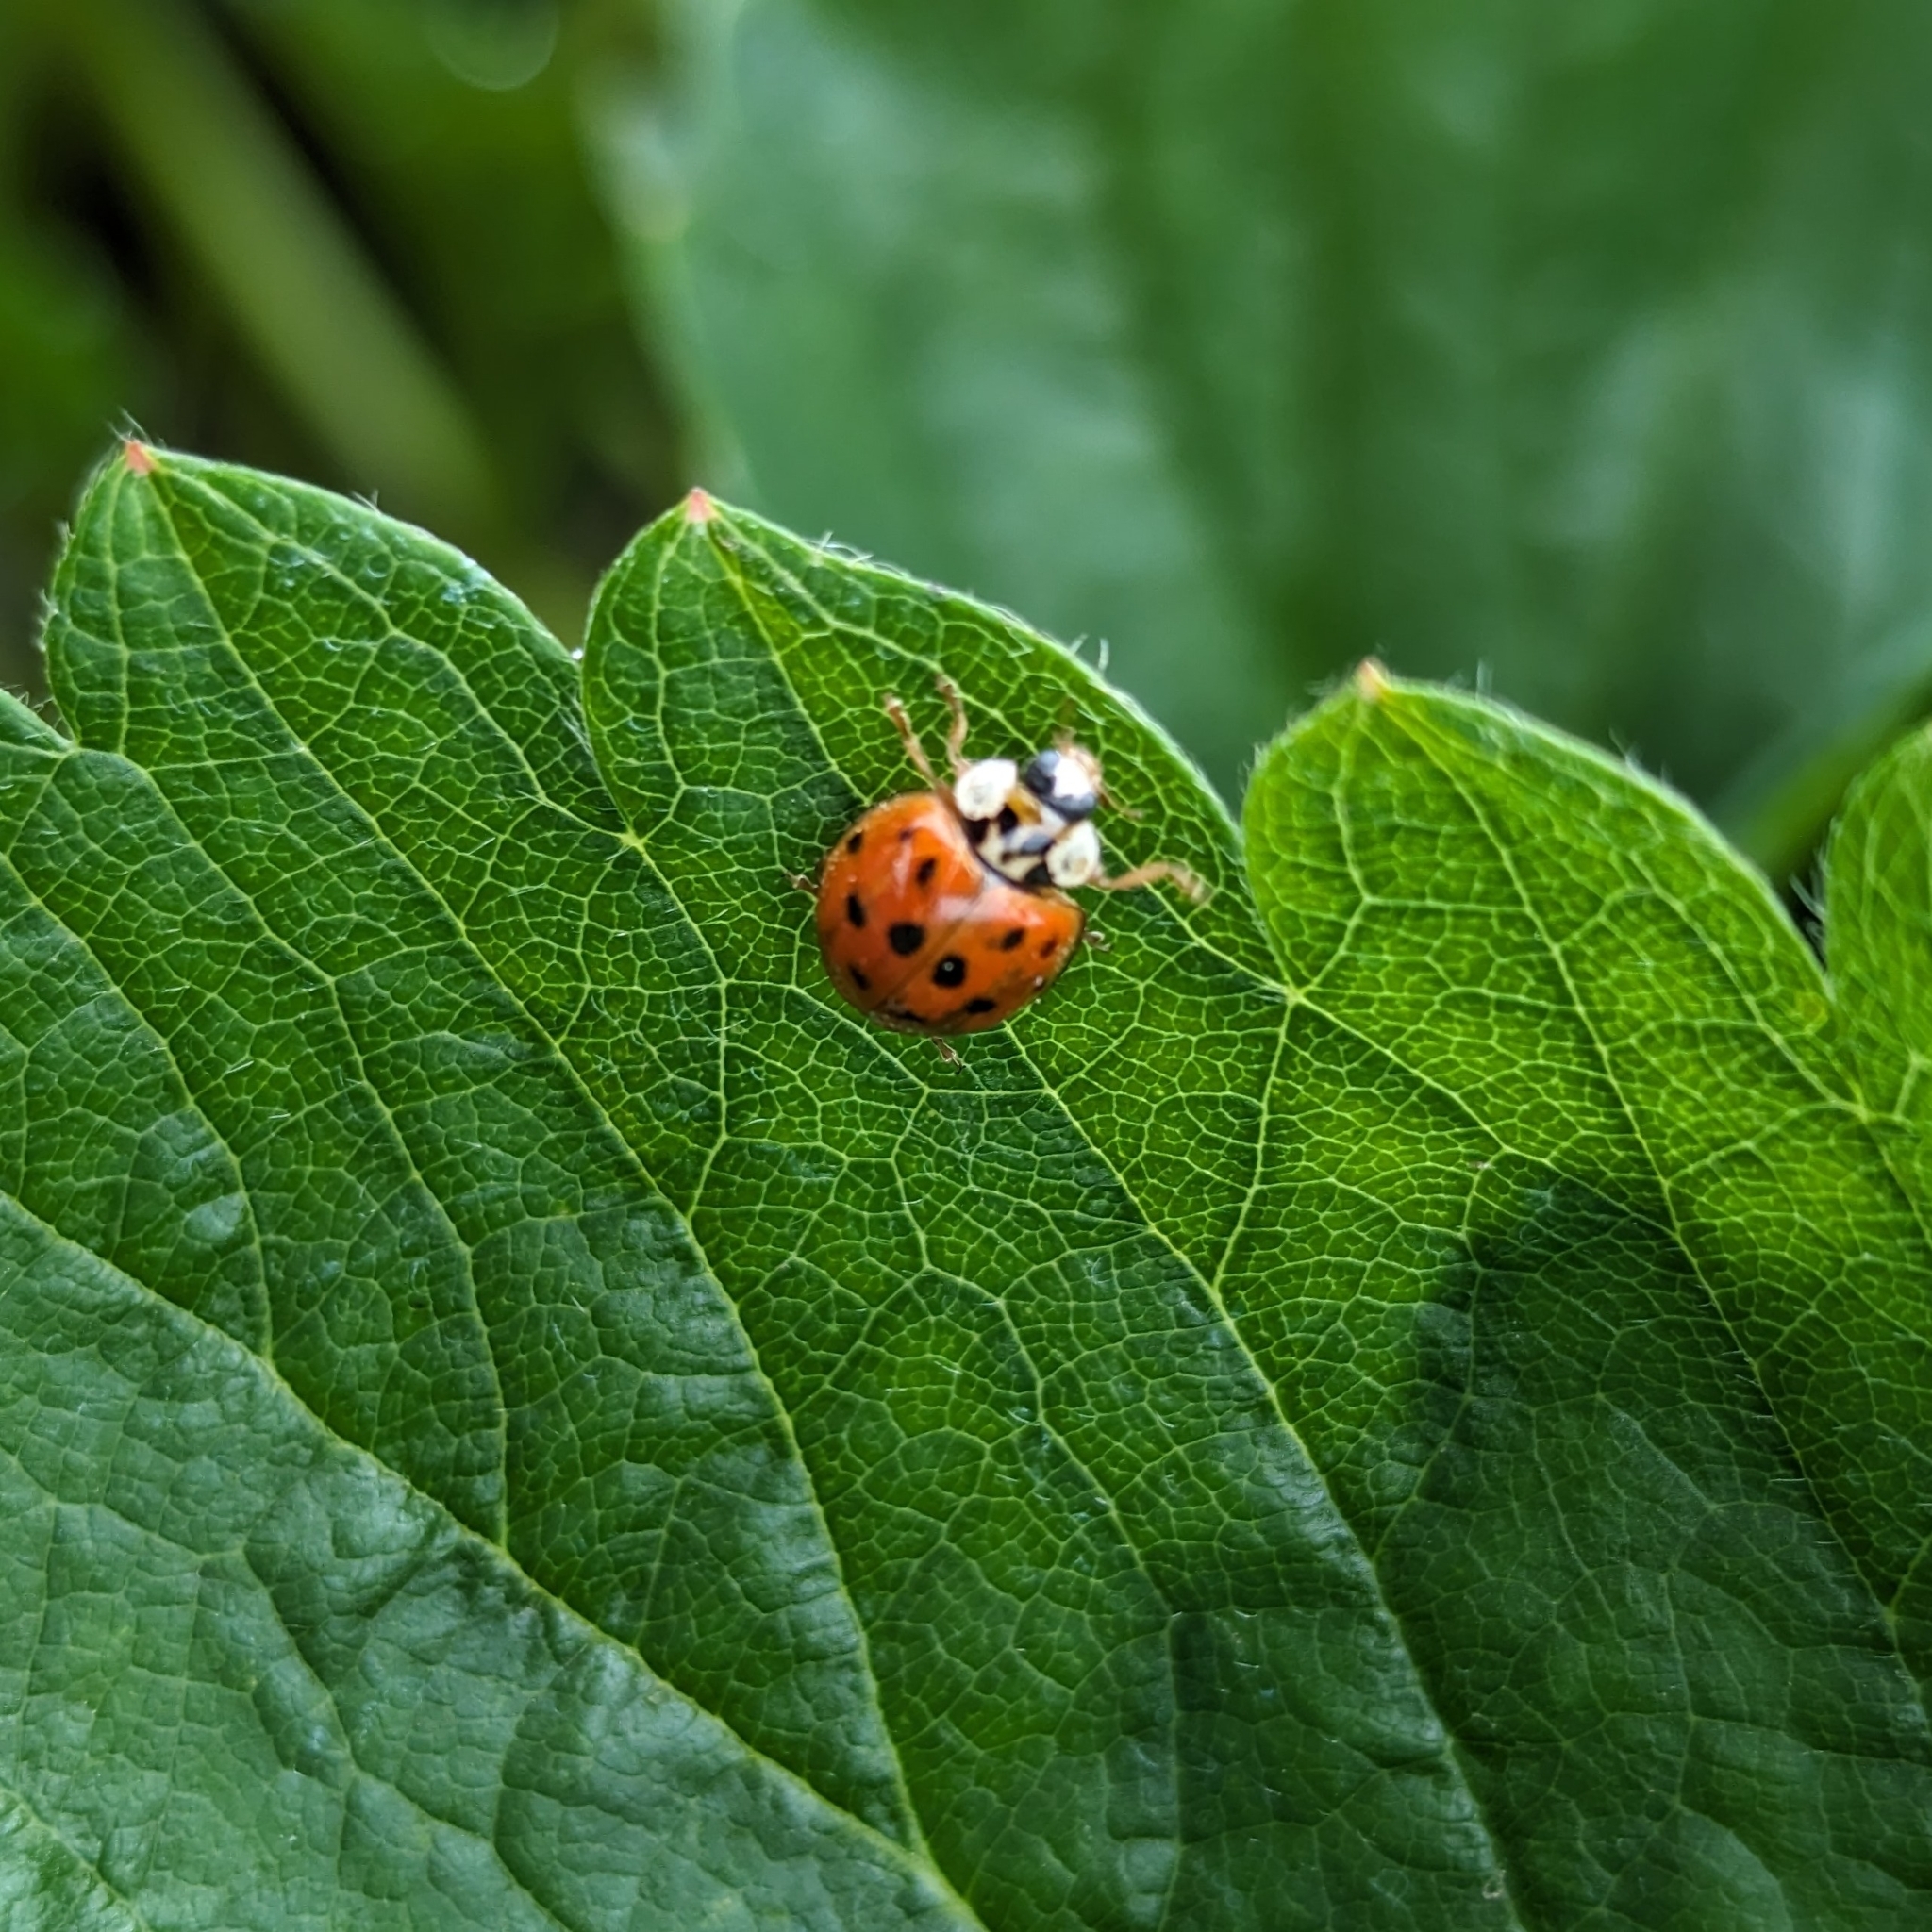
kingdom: Animalia
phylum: Arthropoda
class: Insecta
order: Coleoptera
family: Coccinellidae
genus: Harmonia
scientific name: Harmonia axyridis
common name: Harlequin ladybird
